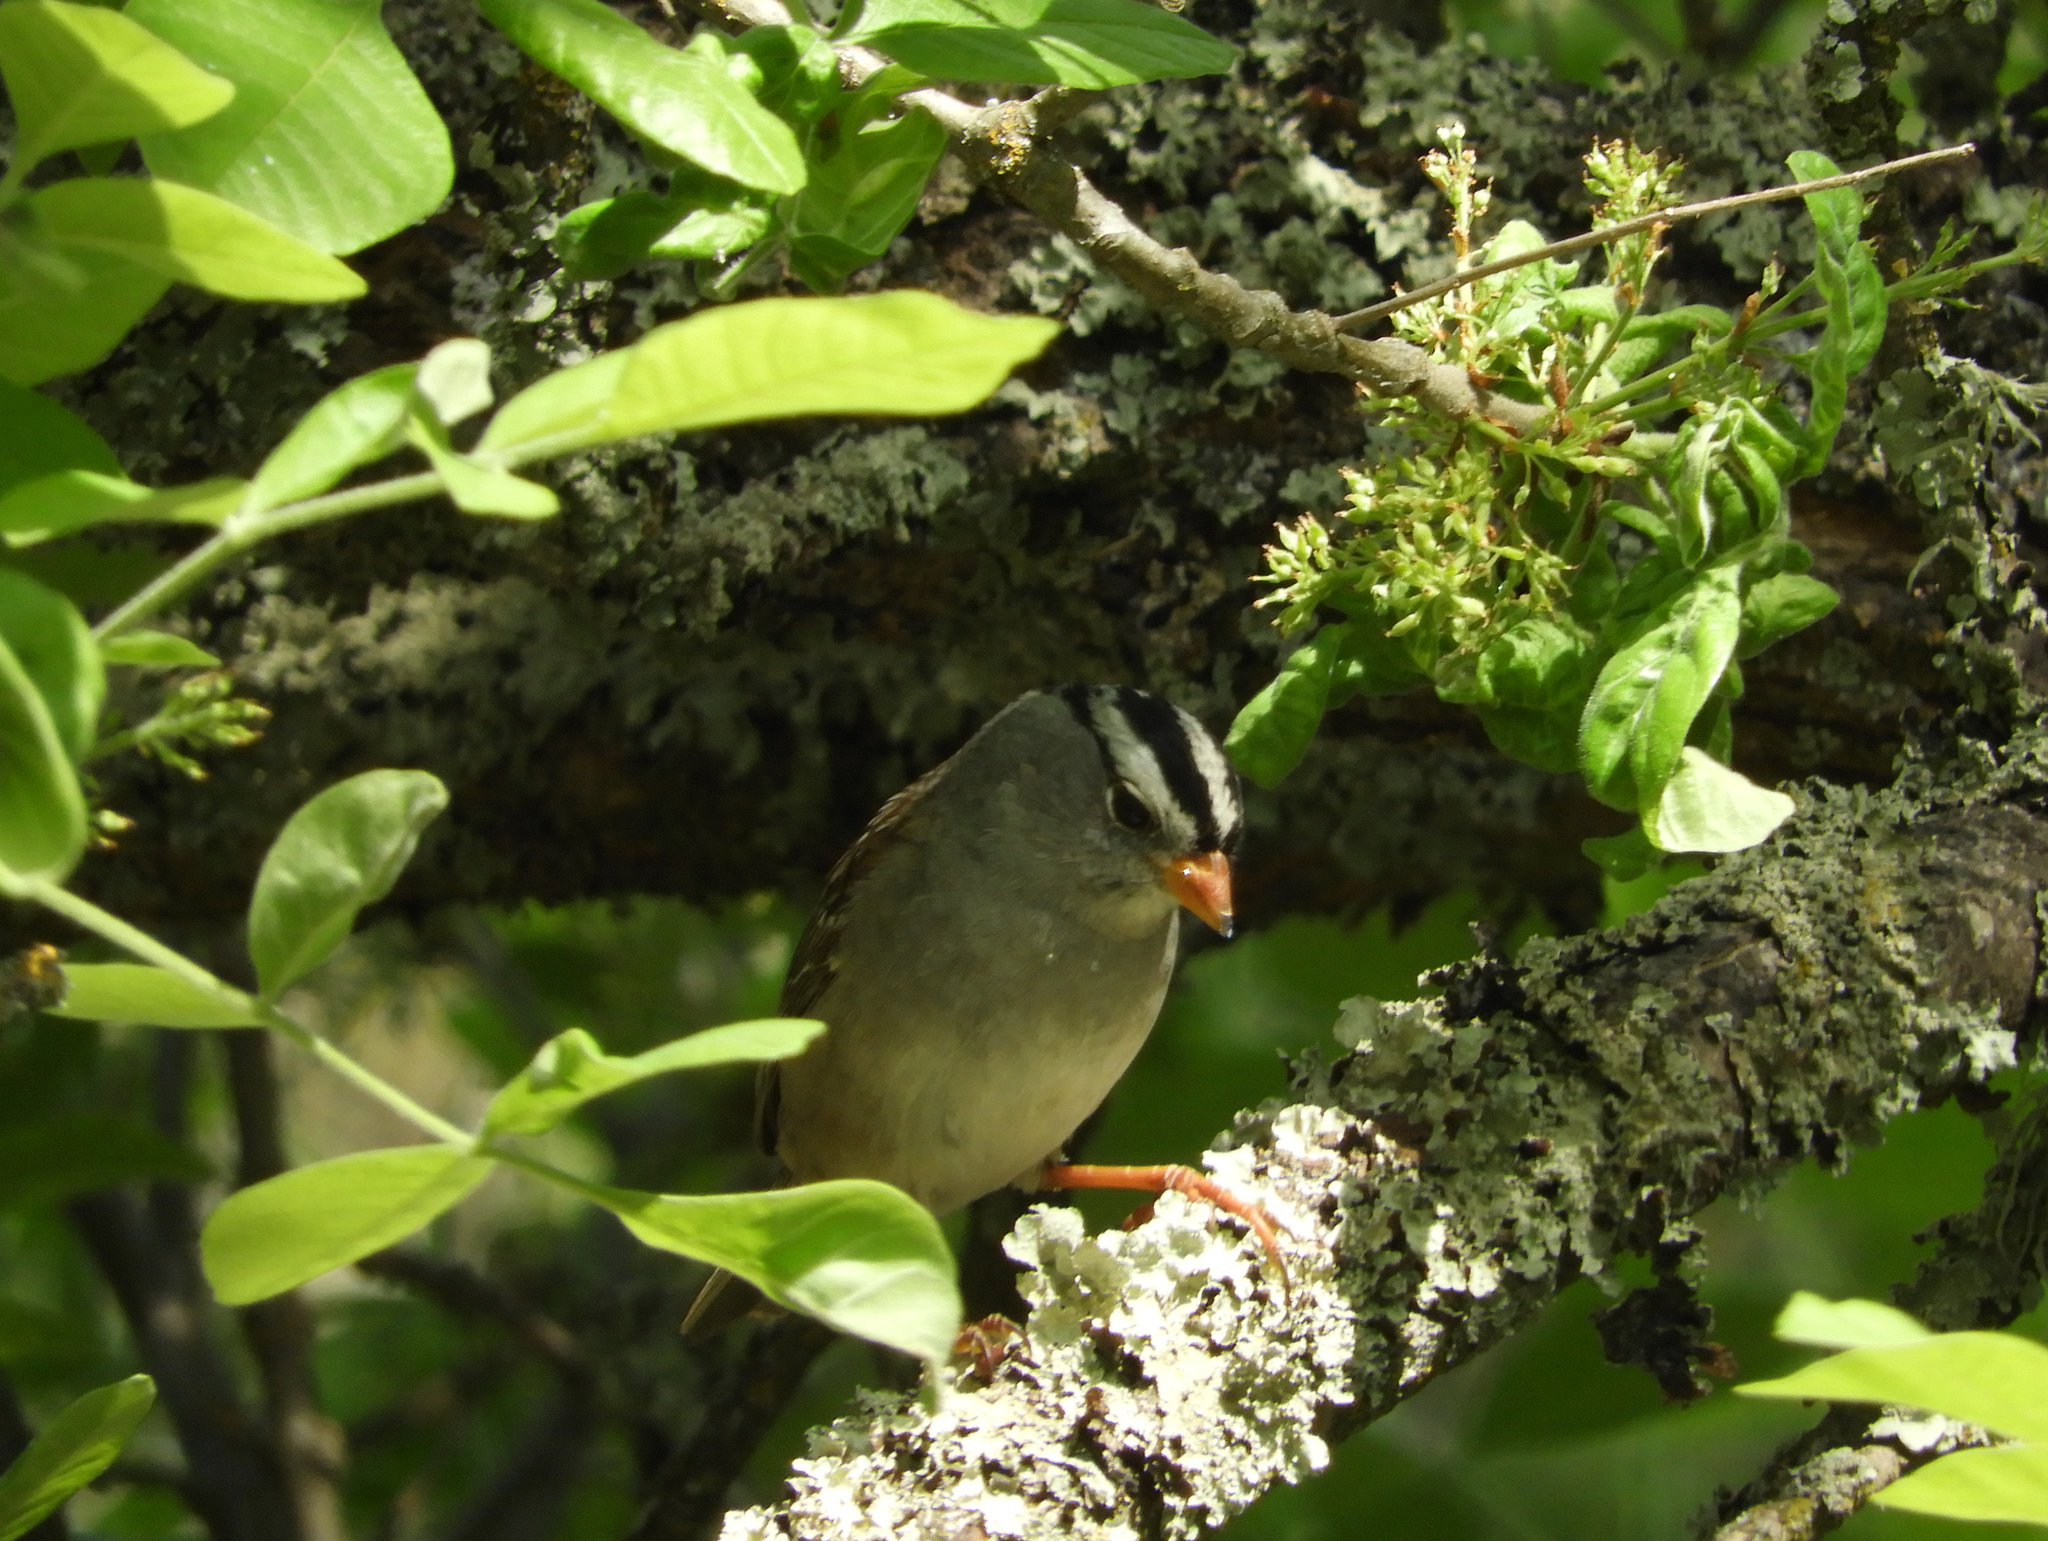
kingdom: Animalia
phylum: Chordata
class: Aves
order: Passeriformes
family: Passerellidae
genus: Zonotrichia
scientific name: Zonotrichia leucophrys
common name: White-crowned sparrow
